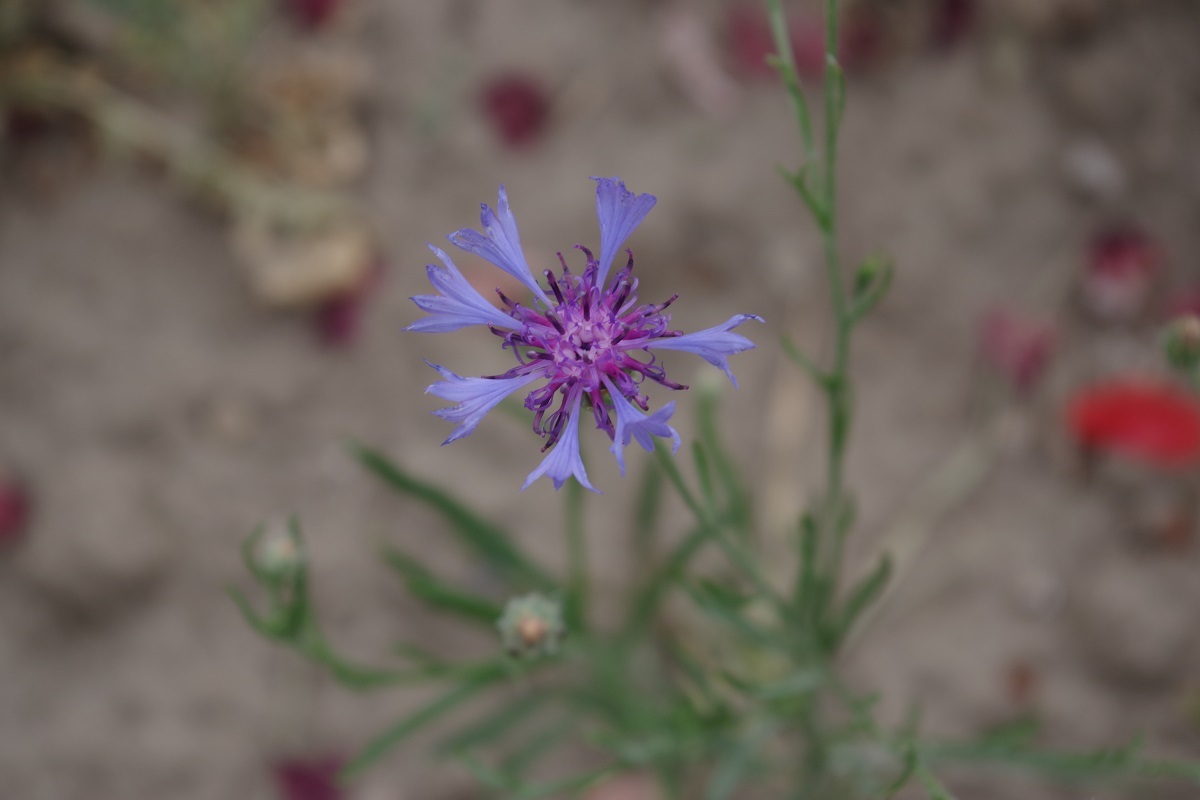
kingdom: Plantae
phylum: Tracheophyta
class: Magnoliopsida
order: Asterales
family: Asteraceae
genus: Centaurea
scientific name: Centaurea cyanus
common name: Cornflower
